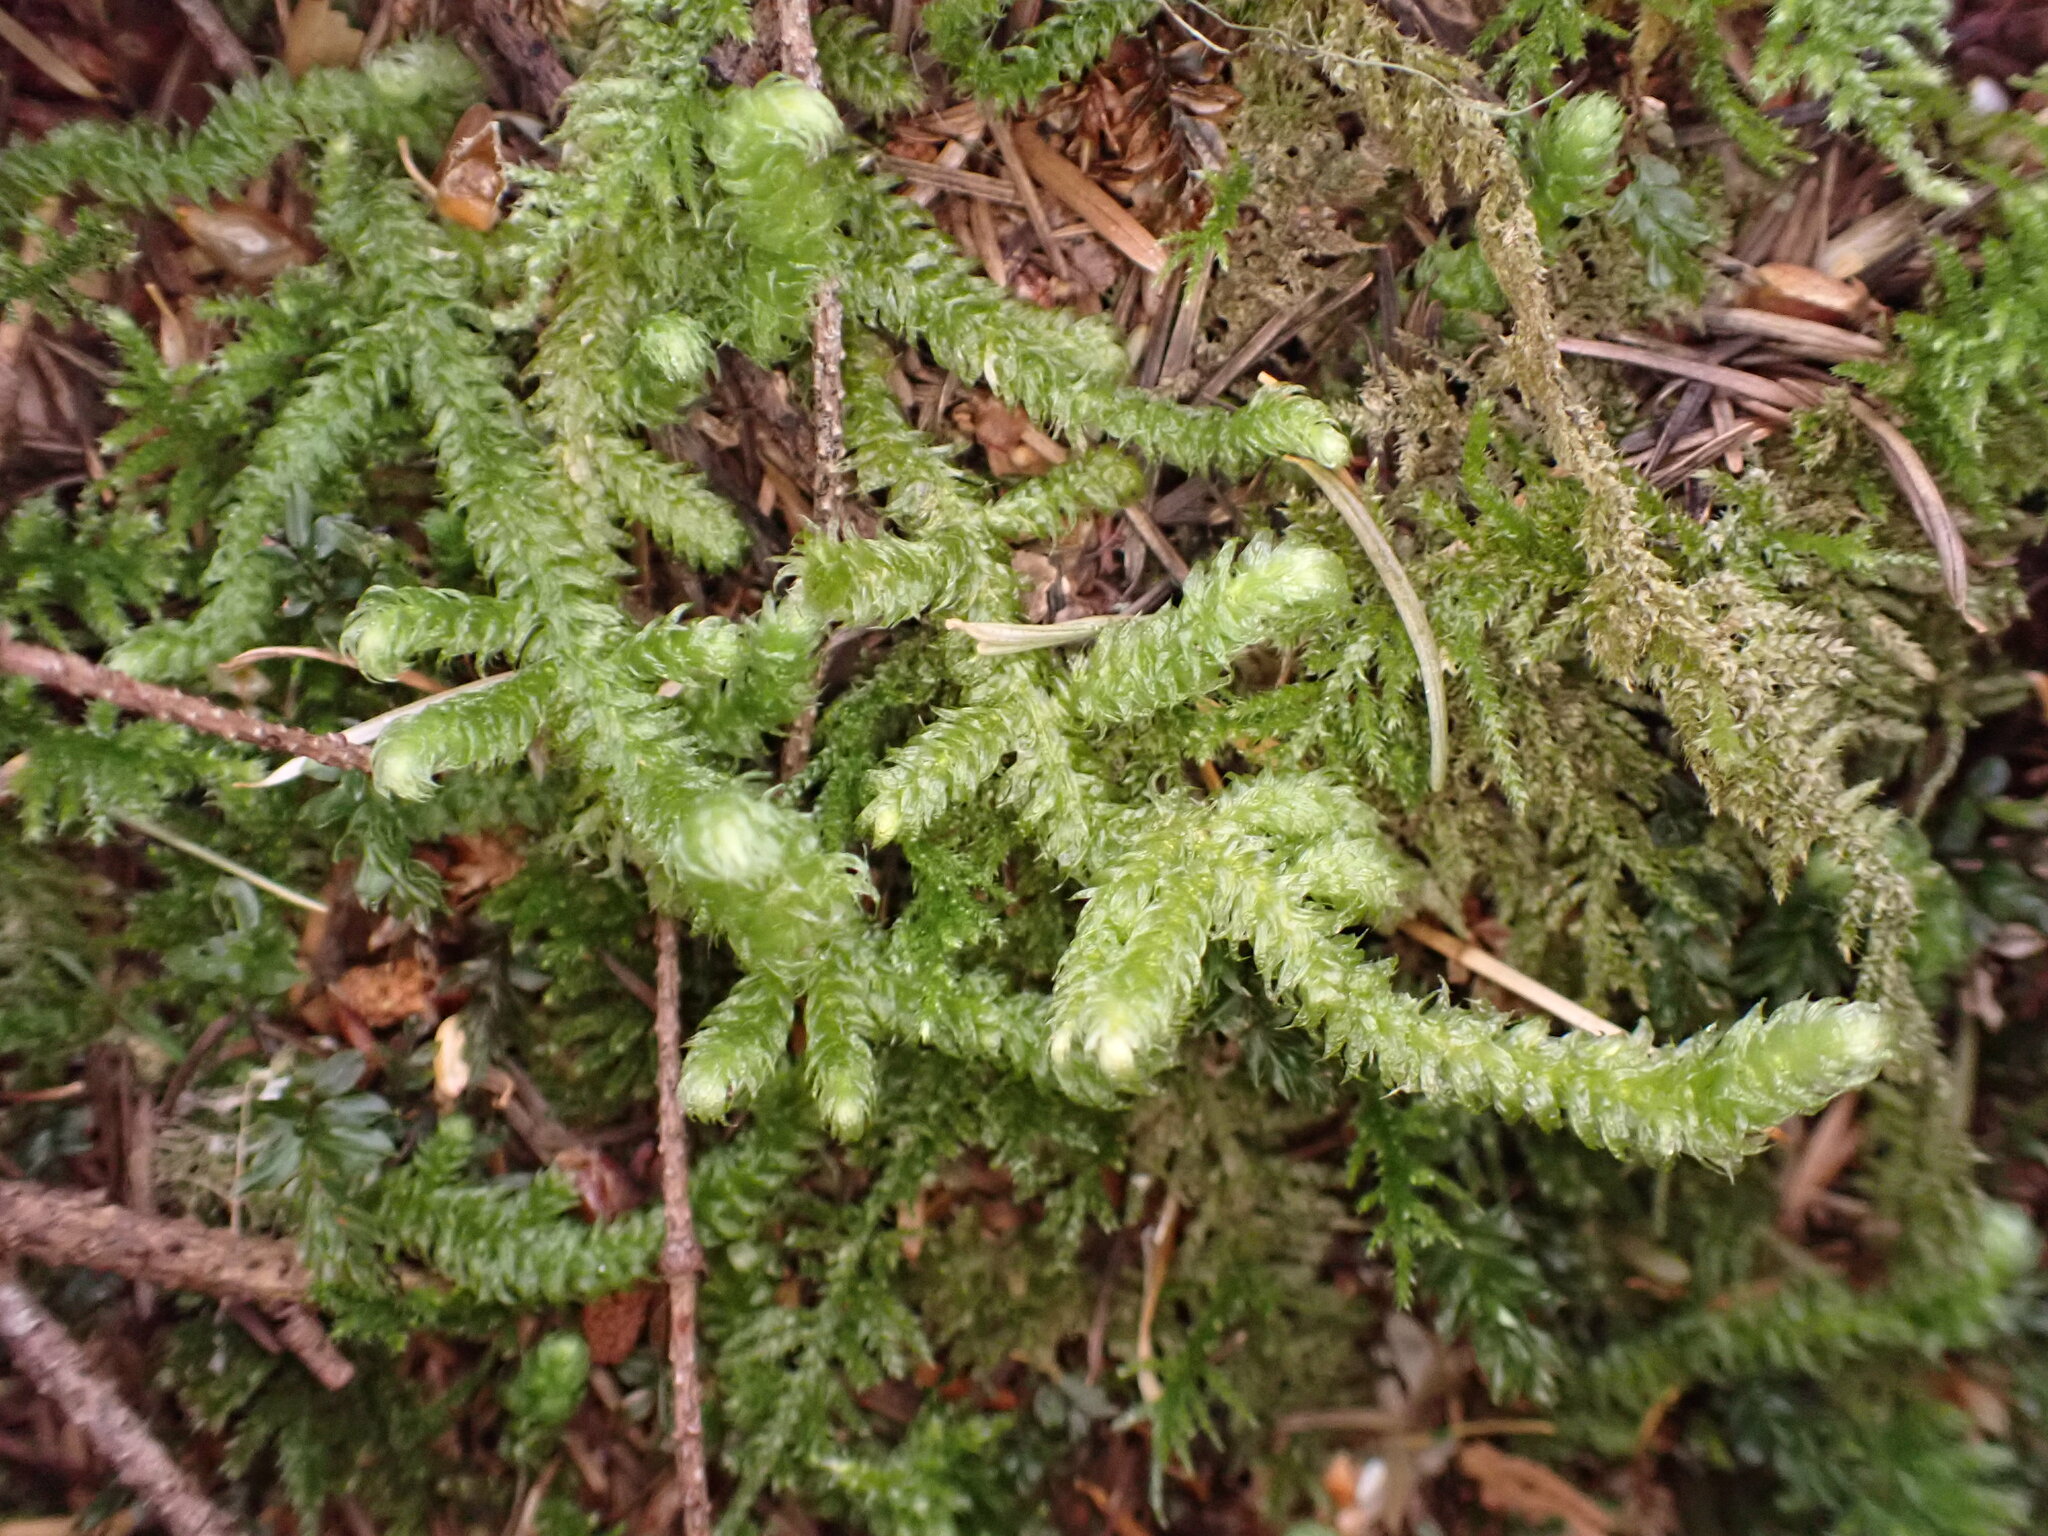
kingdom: Plantae
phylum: Bryophyta
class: Bryopsida
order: Hypnales
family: Hylocomiaceae
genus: Rhytidiopsis
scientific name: Rhytidiopsis robusta
